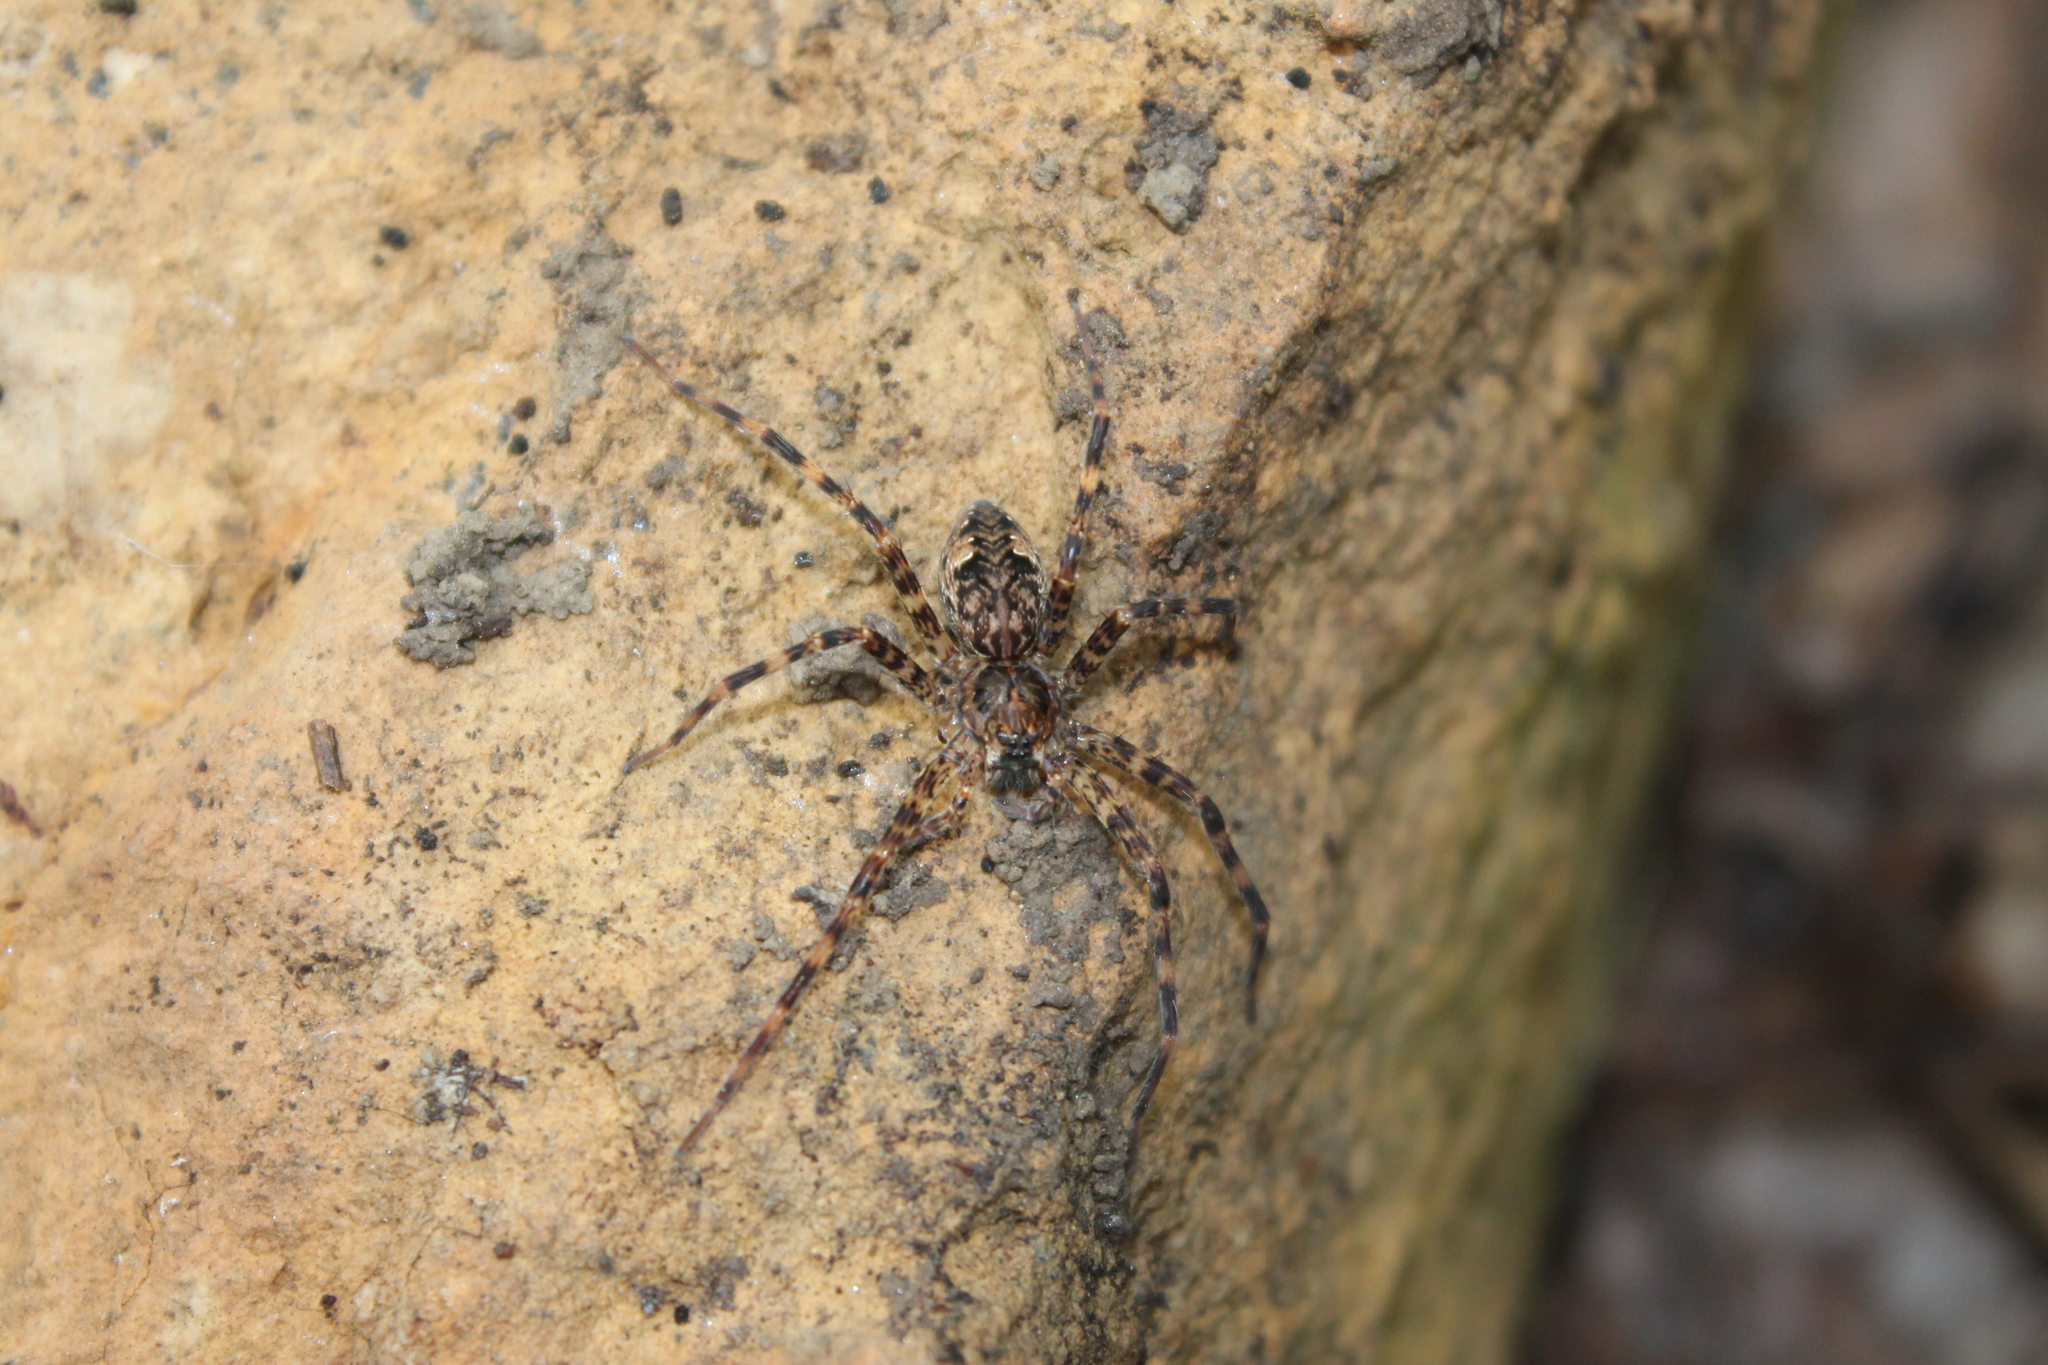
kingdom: Animalia
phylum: Arthropoda
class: Arachnida
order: Araneae
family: Pisauridae
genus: Dolomedes
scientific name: Dolomedes tenebrosus
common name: Dark fishing spider
